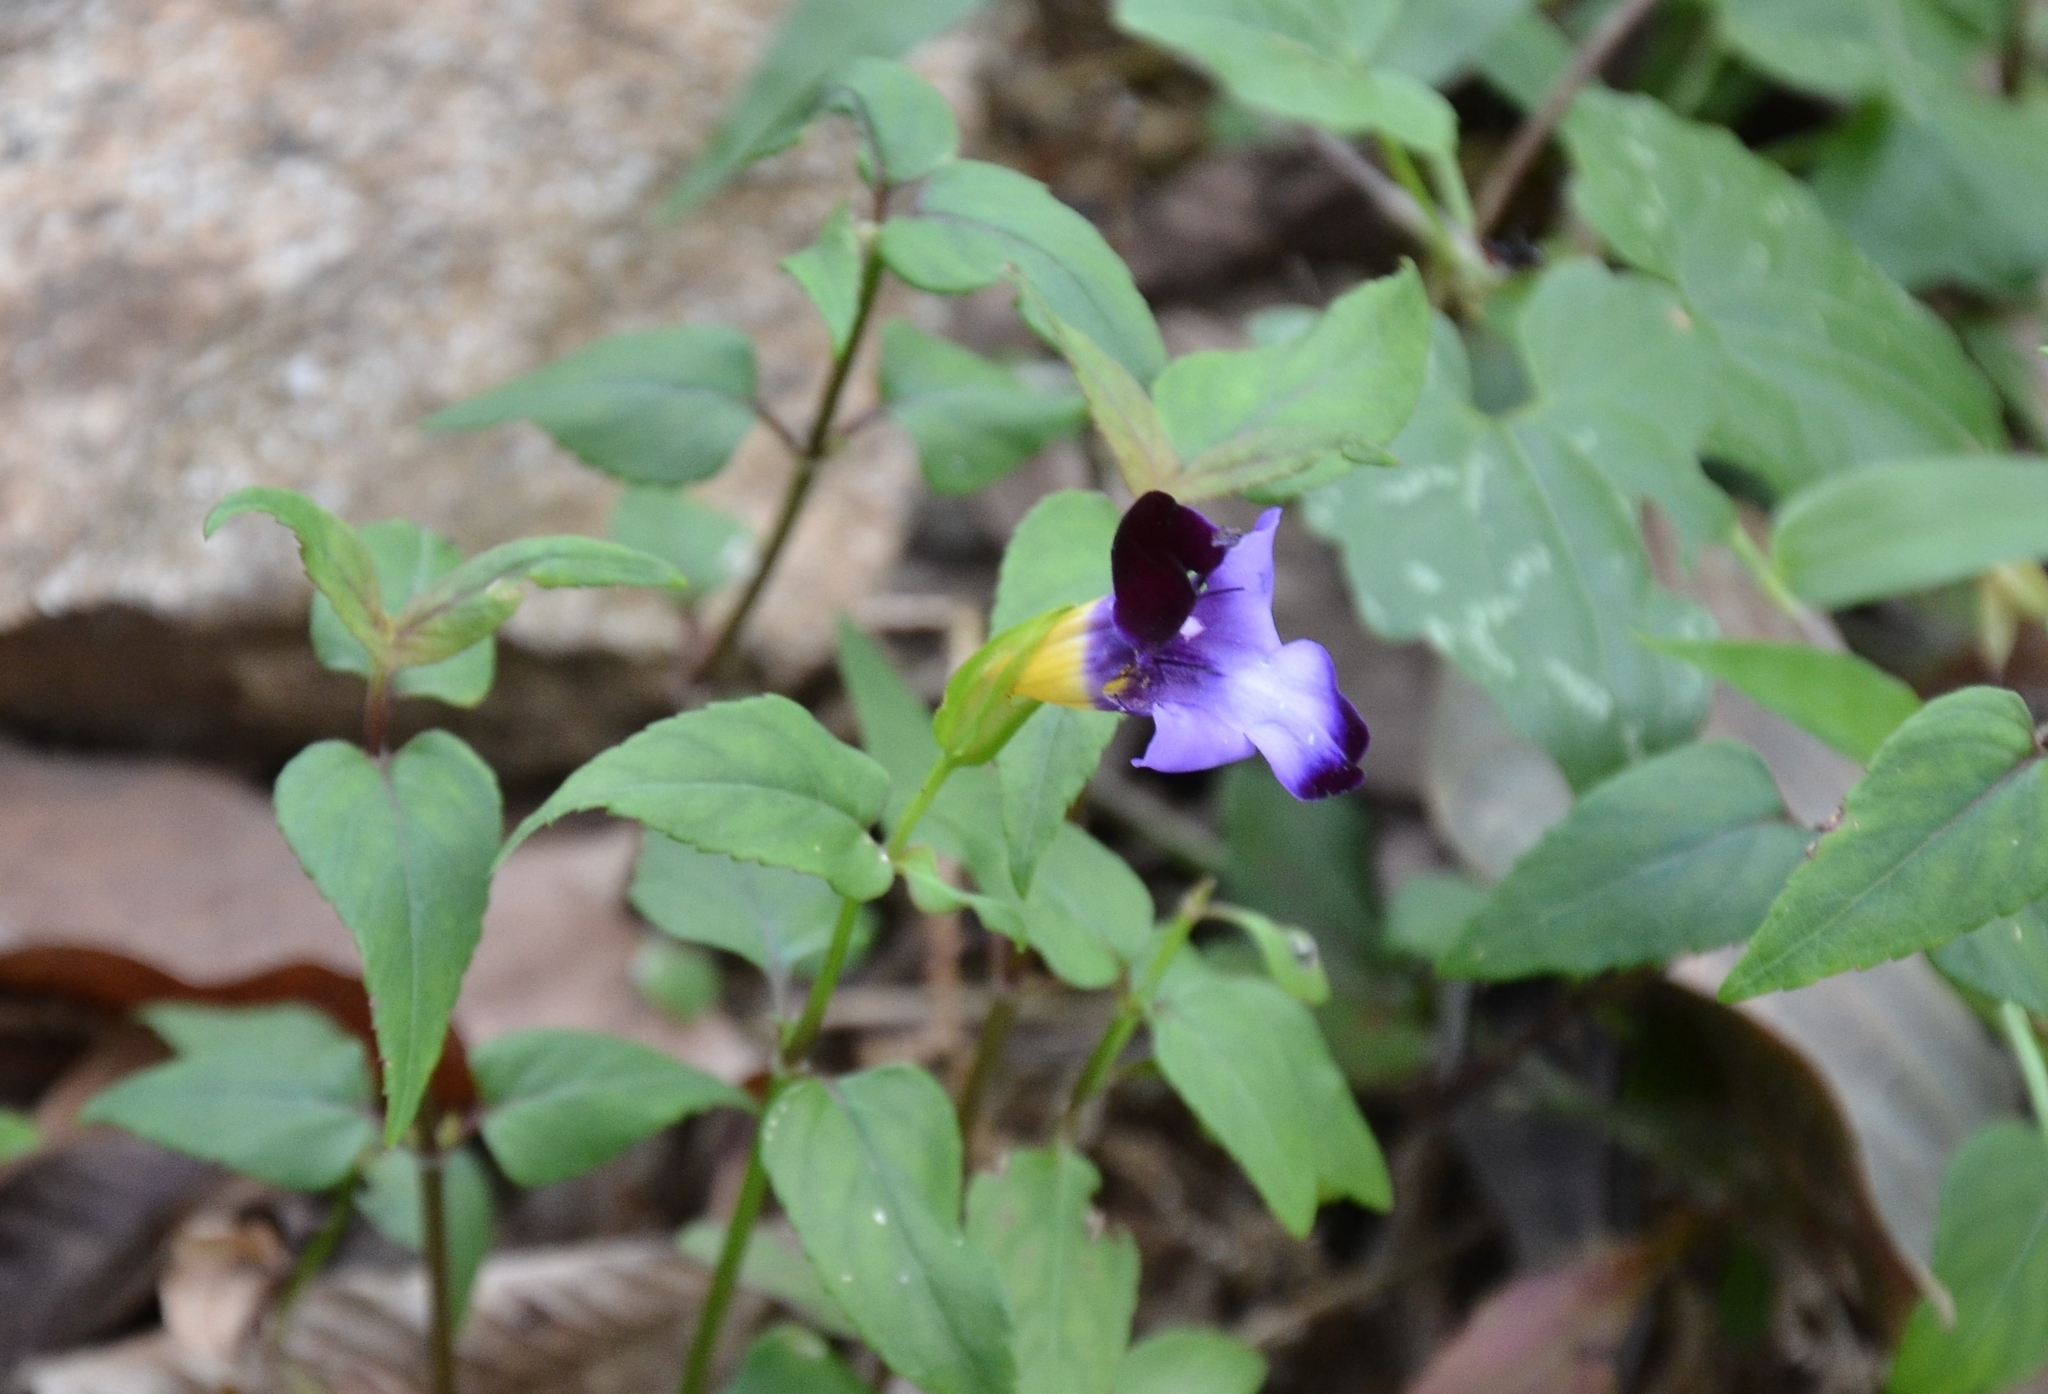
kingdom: Plantae
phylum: Tracheophyta
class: Magnoliopsida
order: Lamiales
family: Linderniaceae
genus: Torenia
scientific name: Torenia leucosiphon
